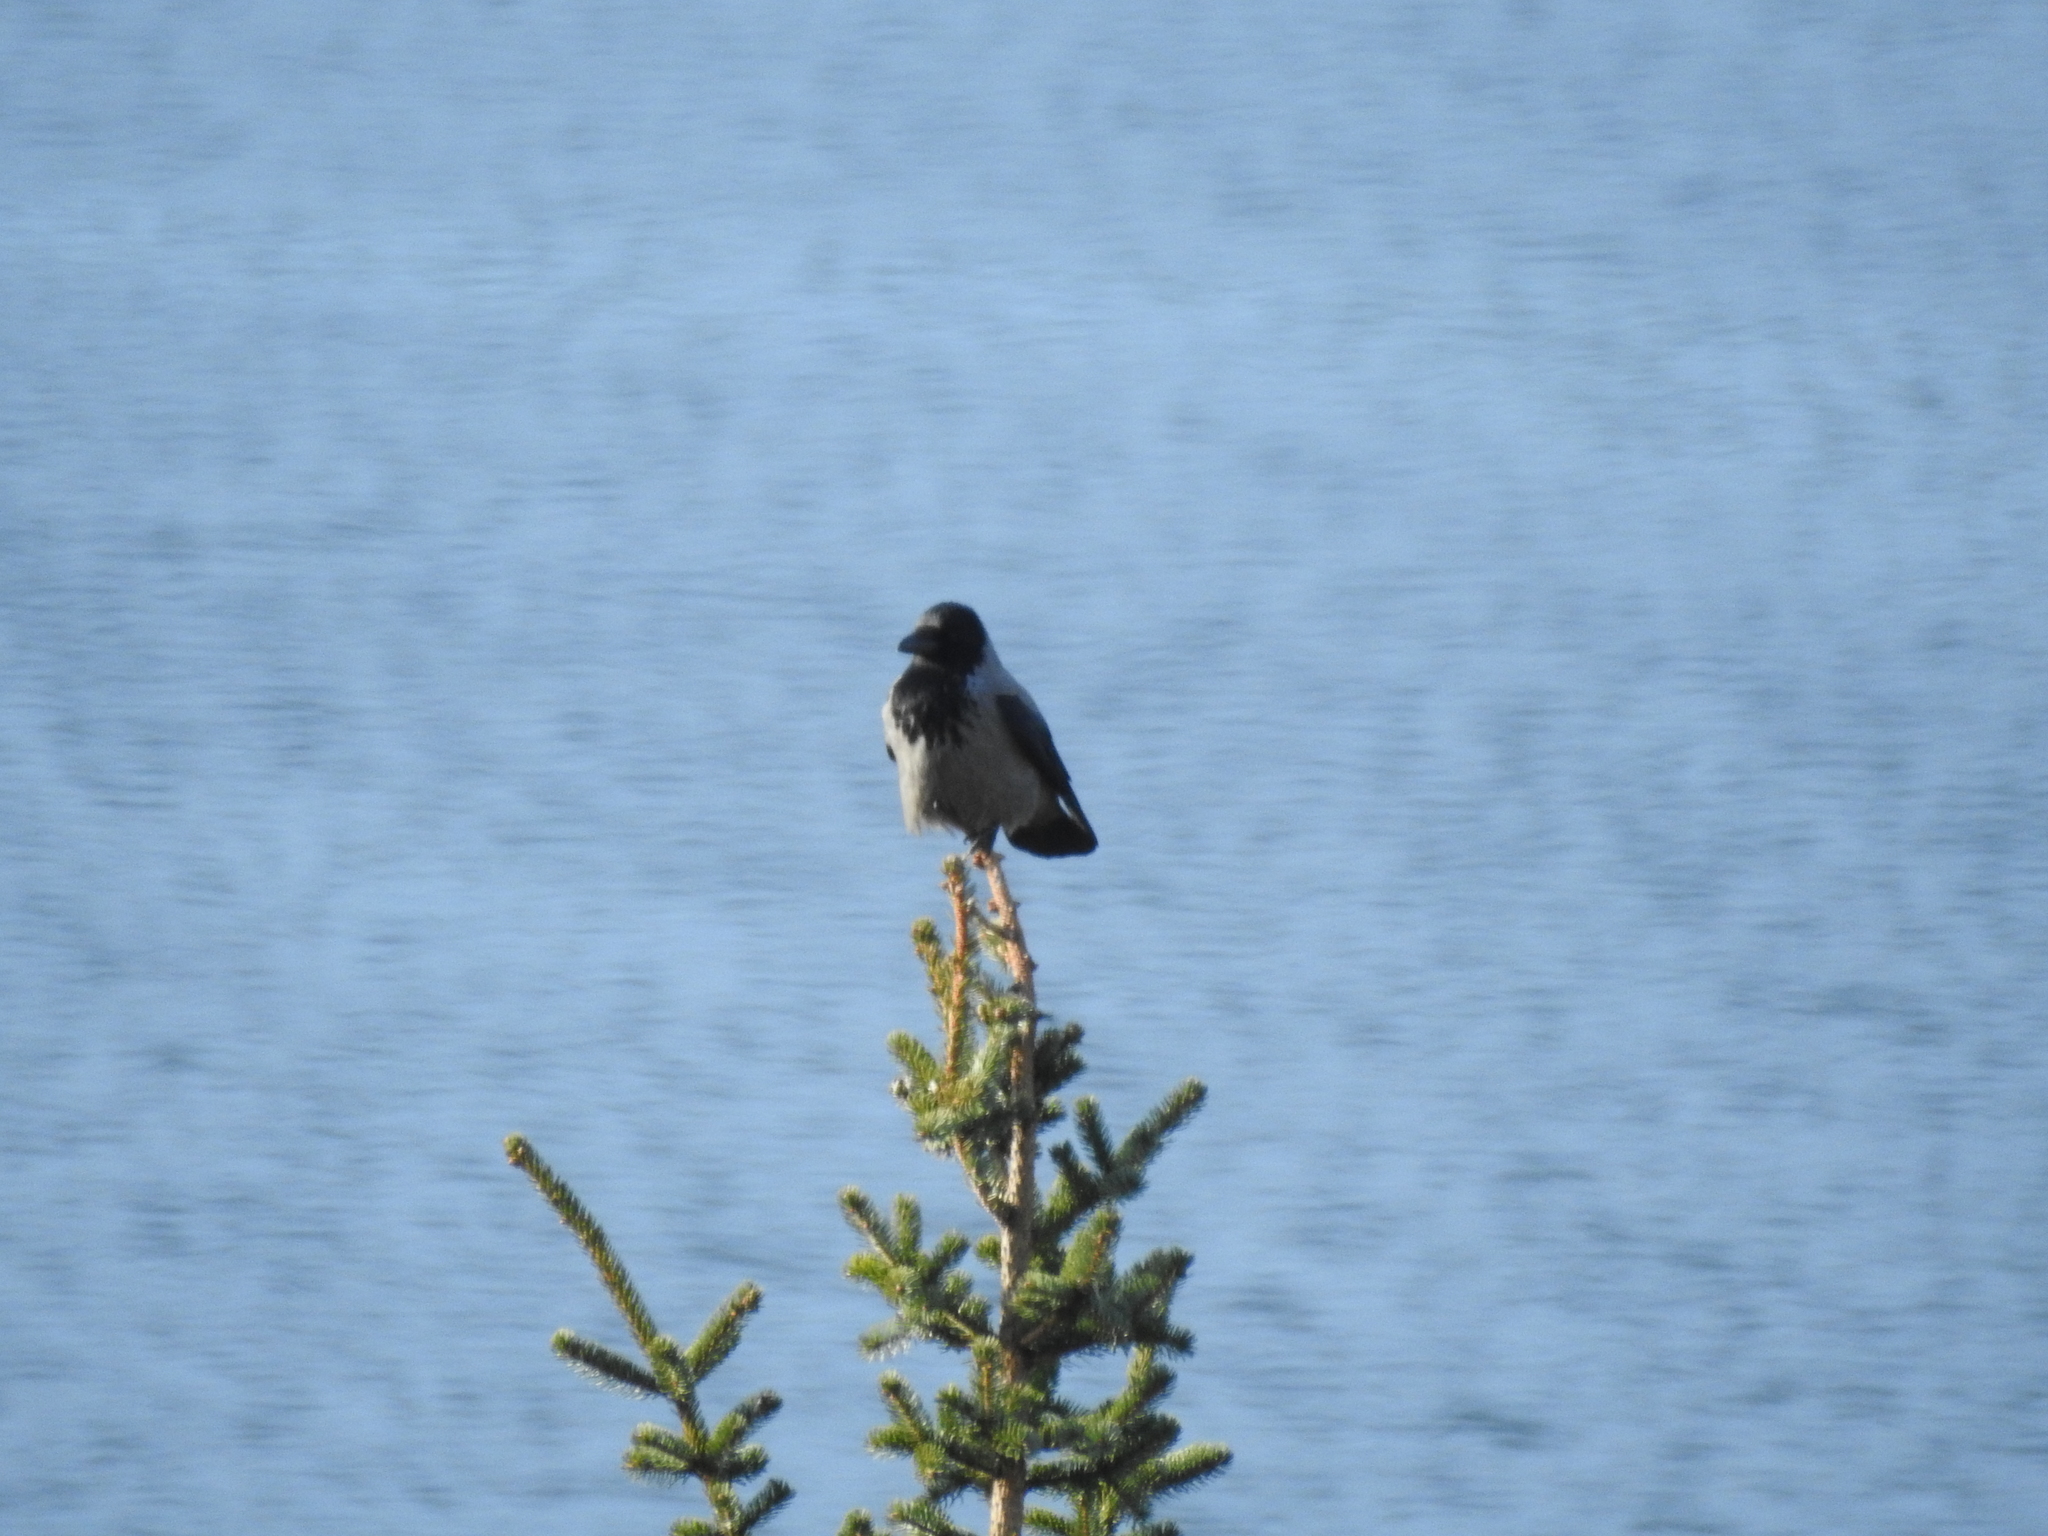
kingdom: Animalia
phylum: Chordata
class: Aves
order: Passeriformes
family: Corvidae
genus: Corvus
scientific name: Corvus cornix
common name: Hooded crow
